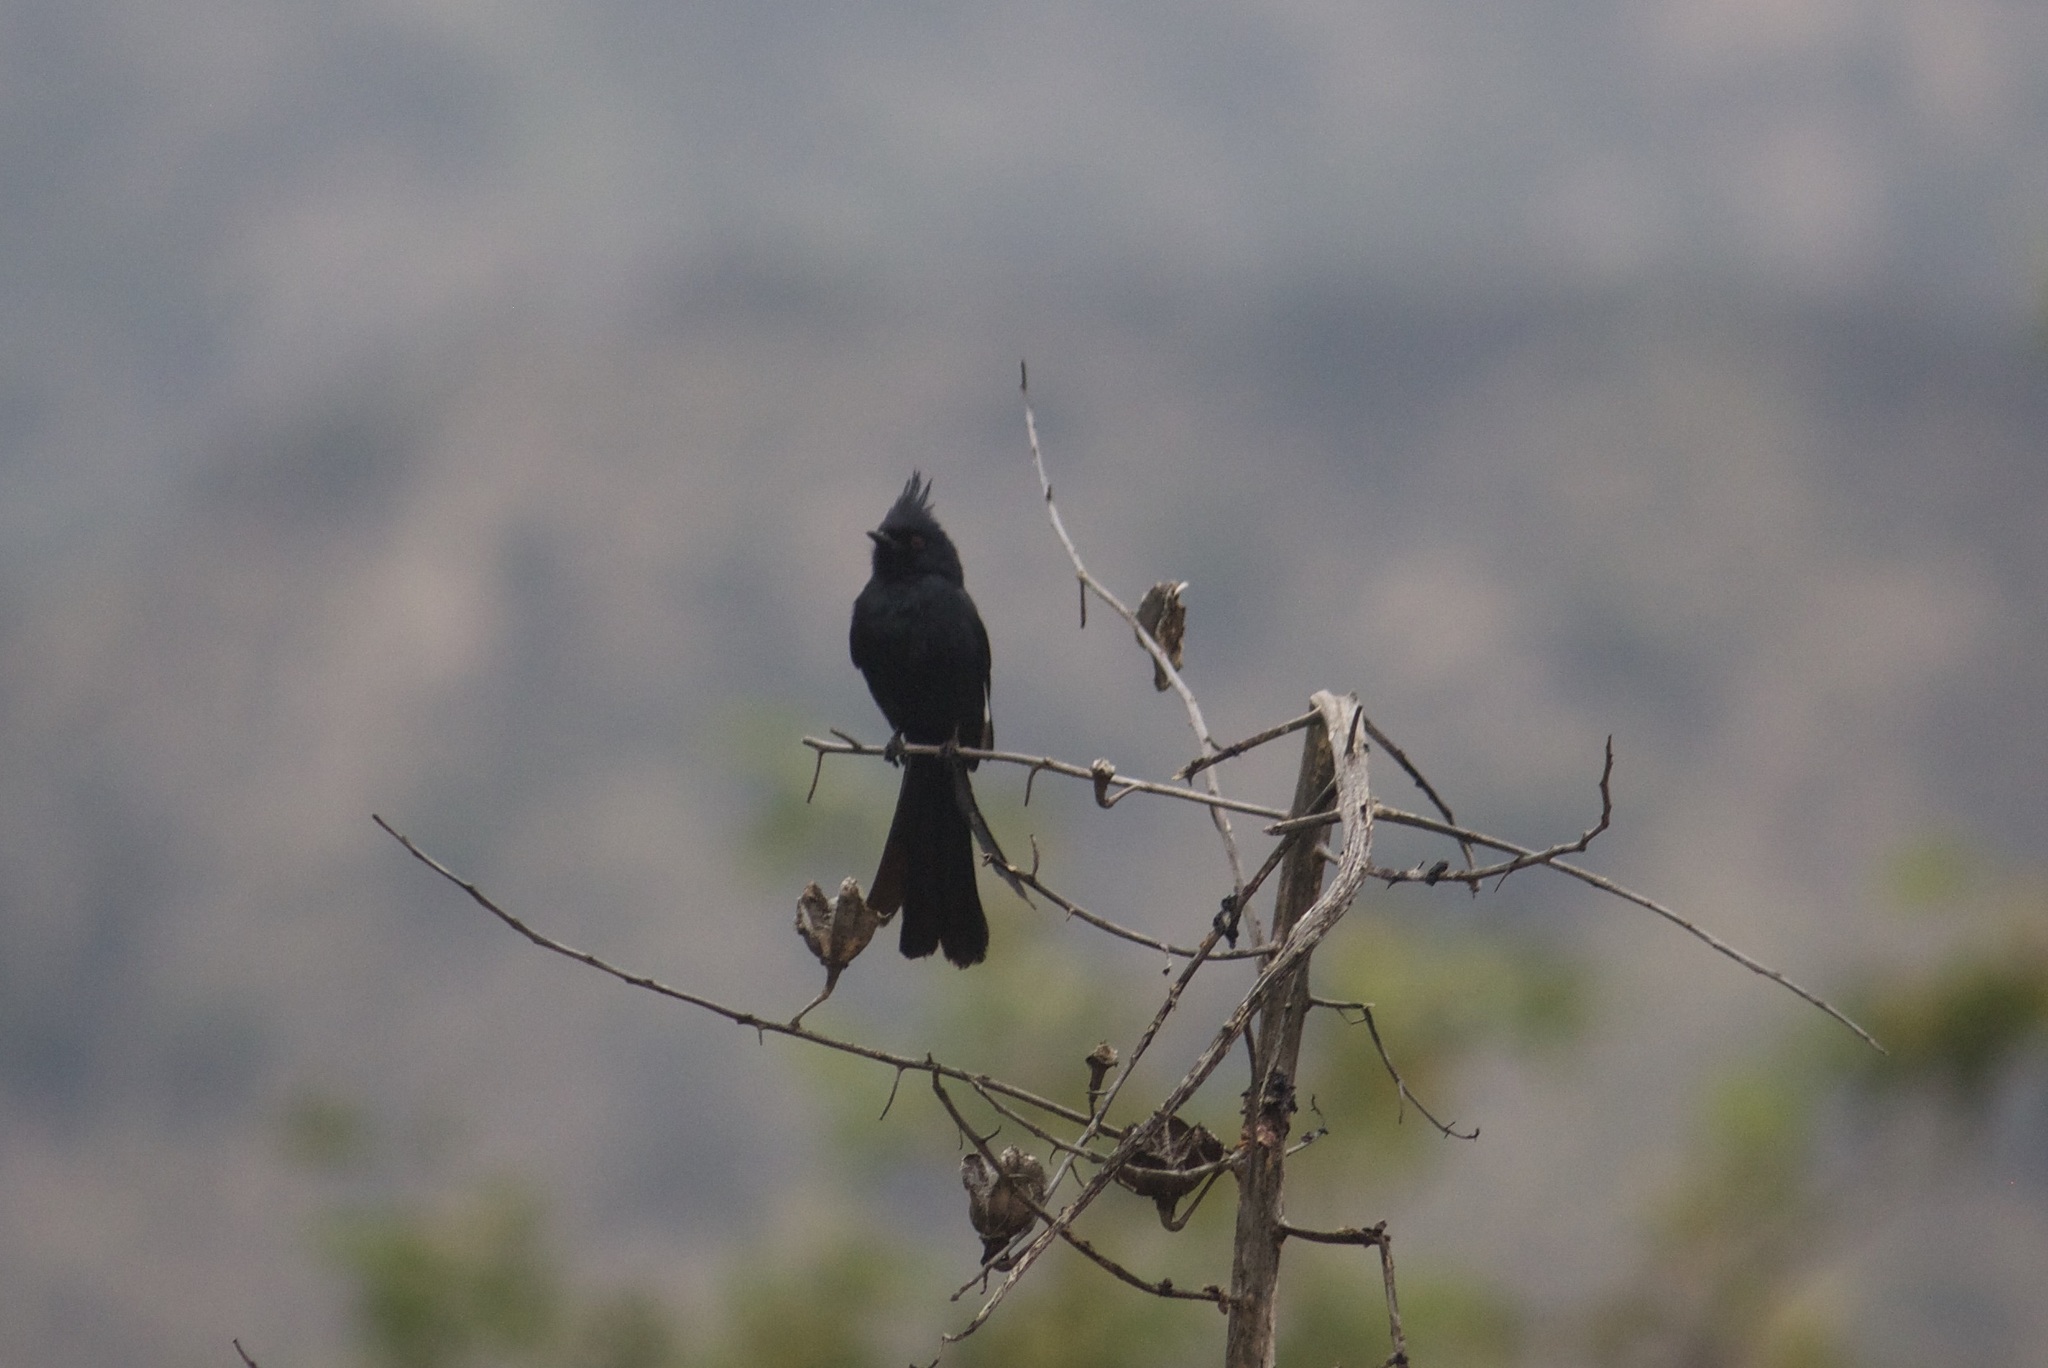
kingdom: Animalia
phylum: Chordata
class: Aves
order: Passeriformes
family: Ptilogonatidae
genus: Phainopepla
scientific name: Phainopepla nitens
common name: Phainopepla
